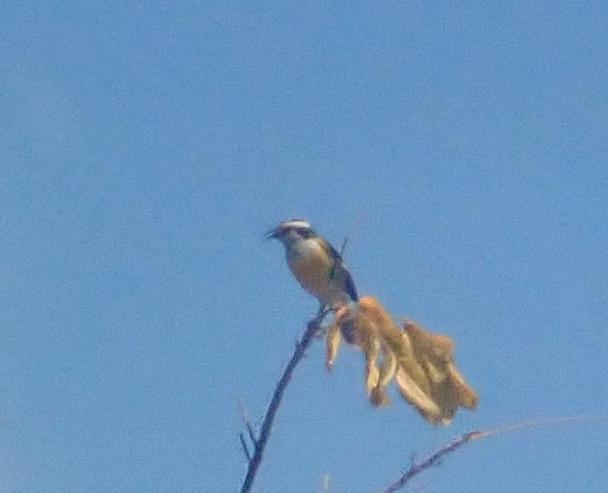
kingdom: Animalia
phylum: Chordata
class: Aves
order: Passeriformes
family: Thraupidae
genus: Coereba
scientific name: Coereba flaveola
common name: Bananaquit
